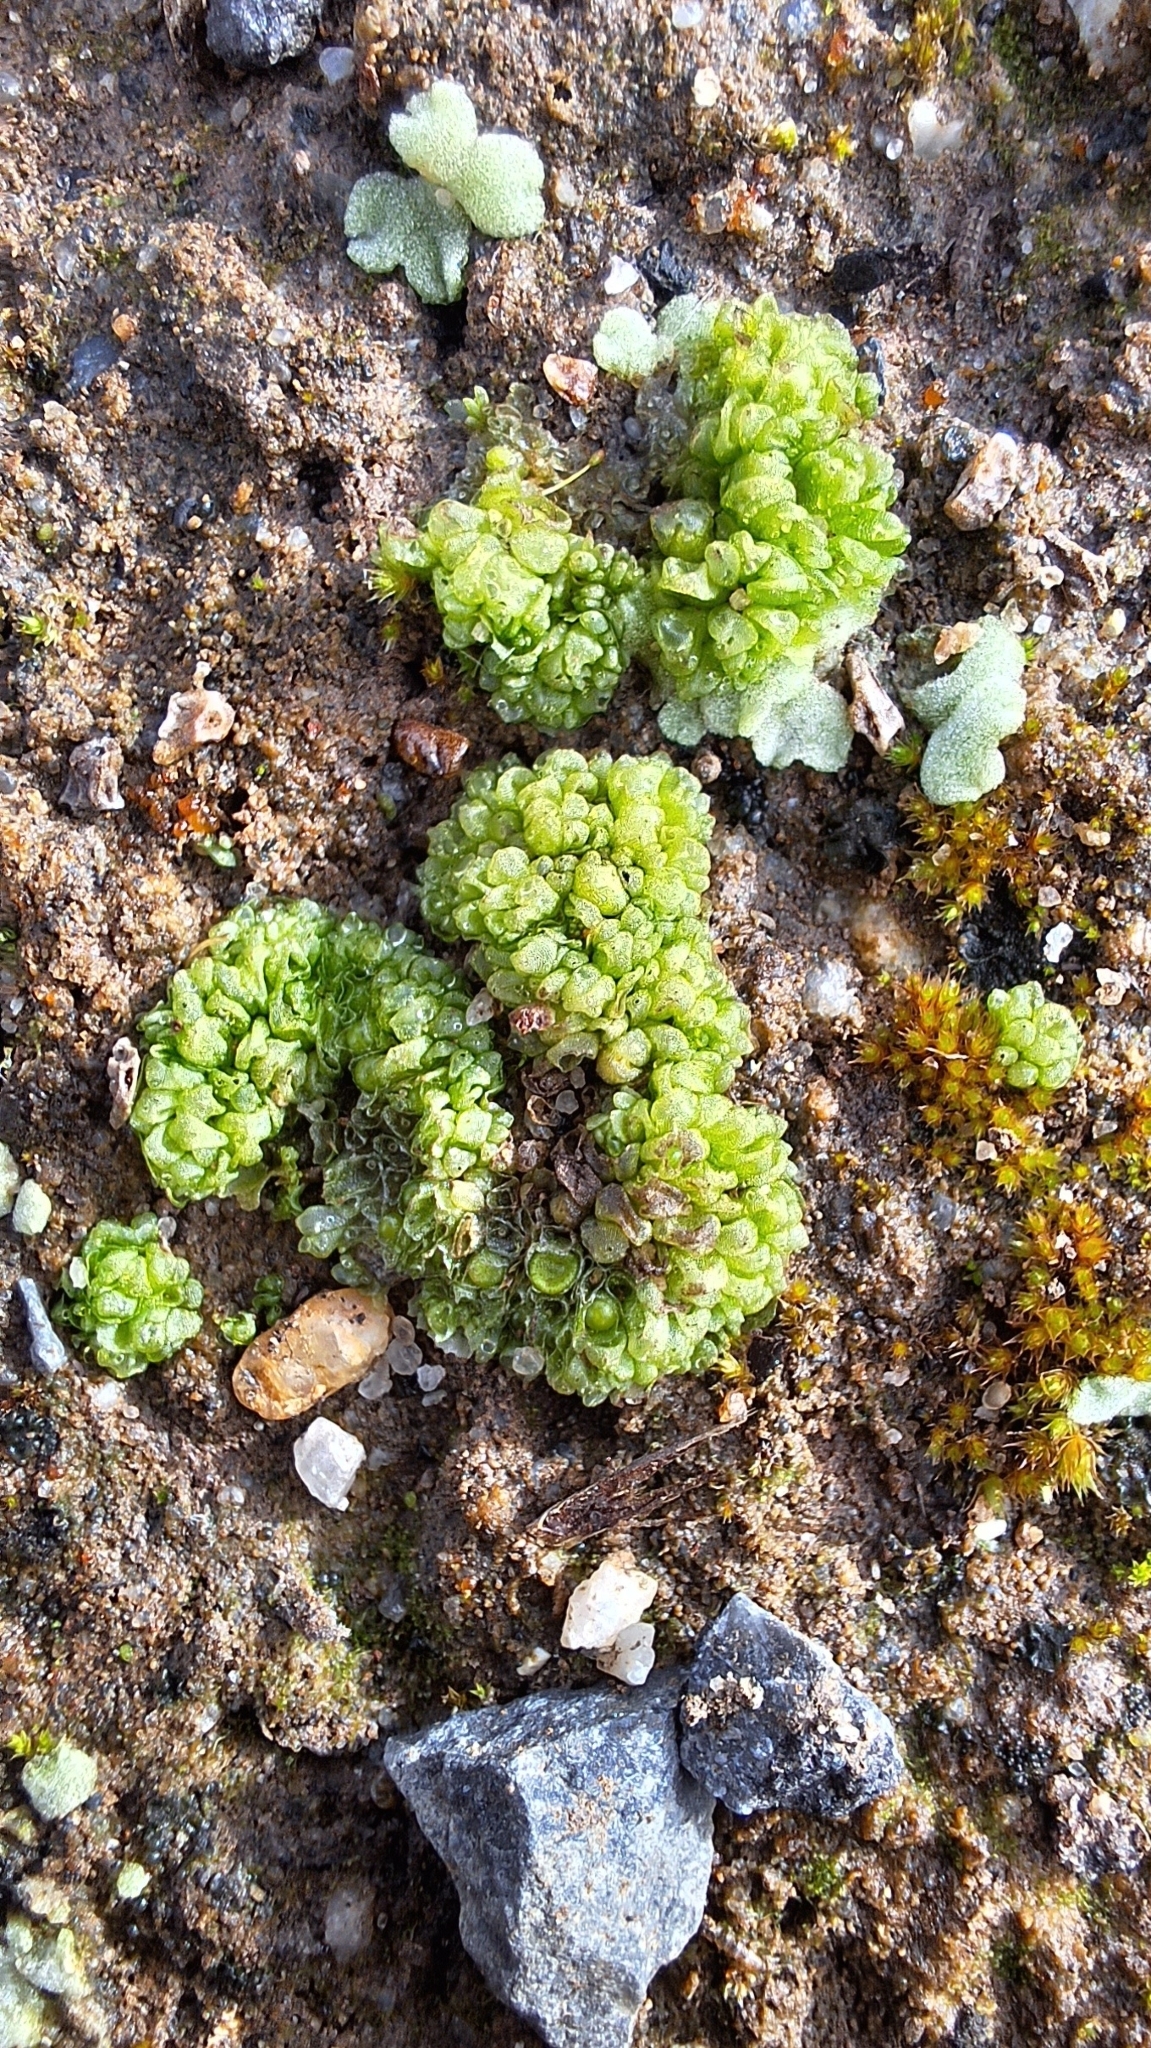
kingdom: Plantae
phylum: Marchantiophyta
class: Marchantiopsida
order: Sphaerocarpales
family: Sphaerocarpaceae
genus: Sphaerocarpos
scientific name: Sphaerocarpos texanus
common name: Texas balloonwort
